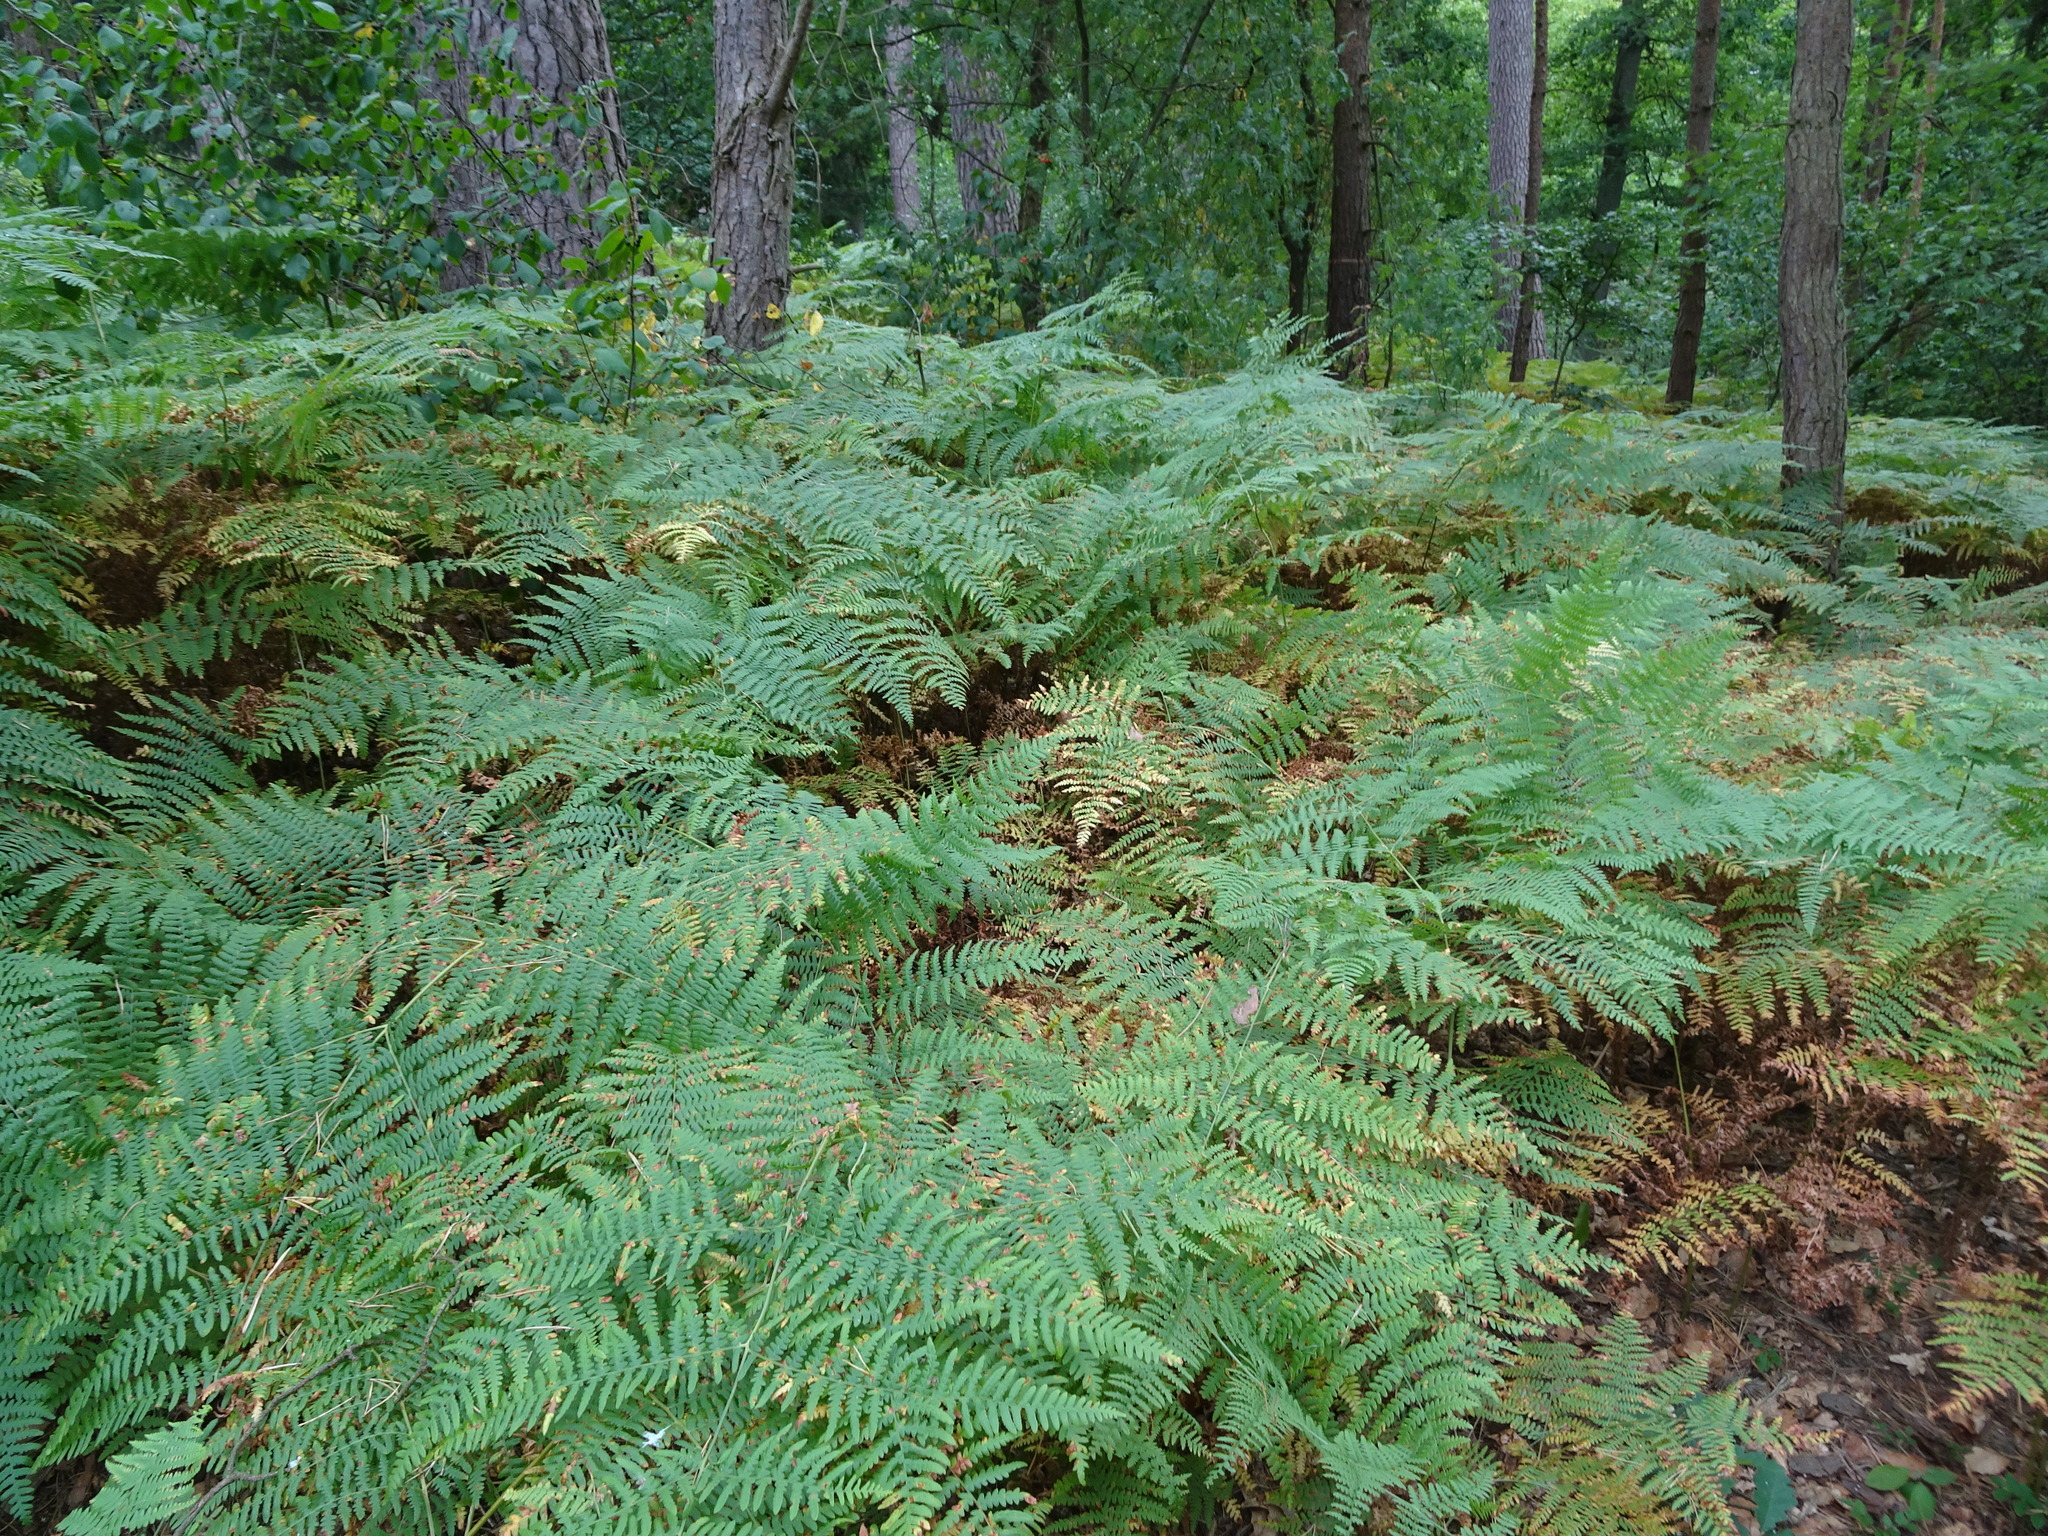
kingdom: Plantae
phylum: Tracheophyta
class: Polypodiopsida
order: Polypodiales
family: Dennstaedtiaceae
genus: Pteridium
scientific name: Pteridium aquilinum
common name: Bracken
